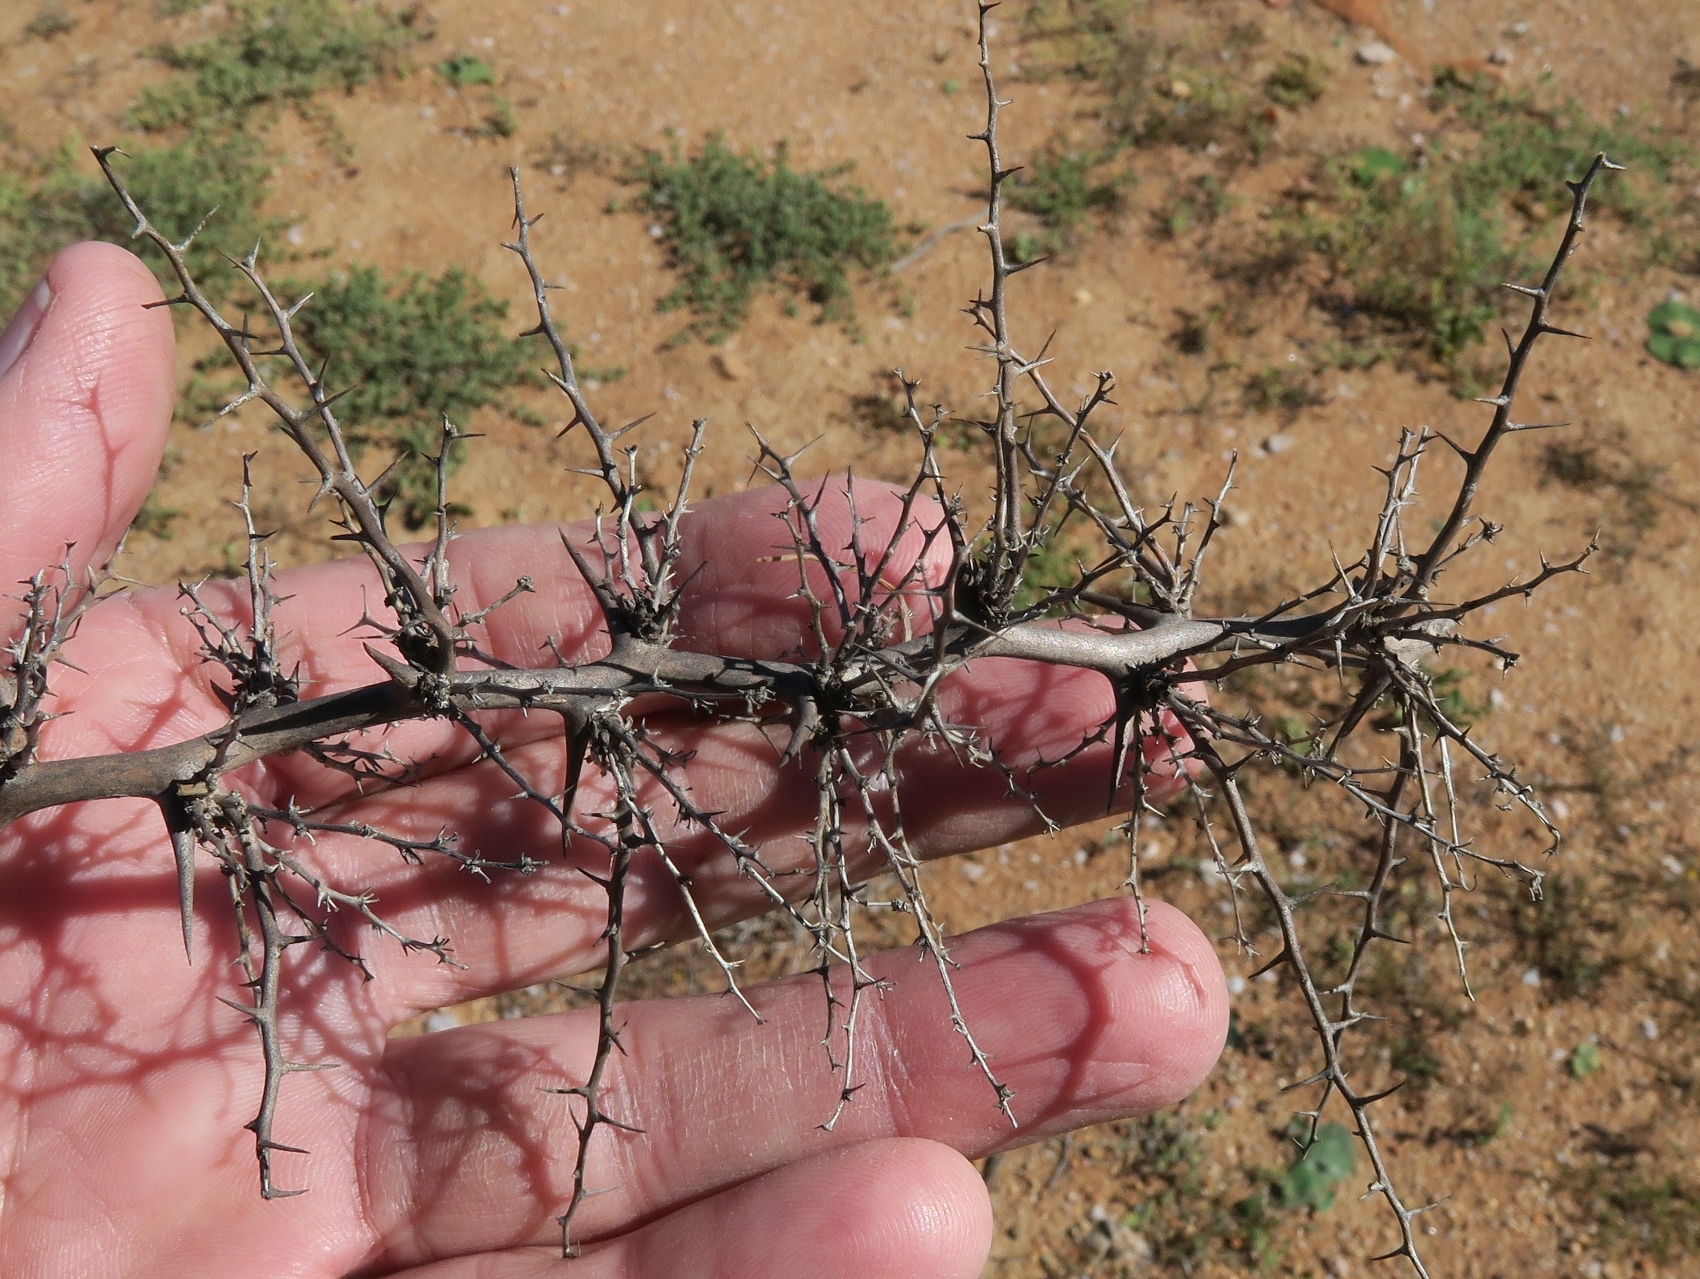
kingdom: Plantae
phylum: Tracheophyta
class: Liliopsida
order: Asparagales
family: Asparagaceae
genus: Asparagus
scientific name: Asparagus graniticus
